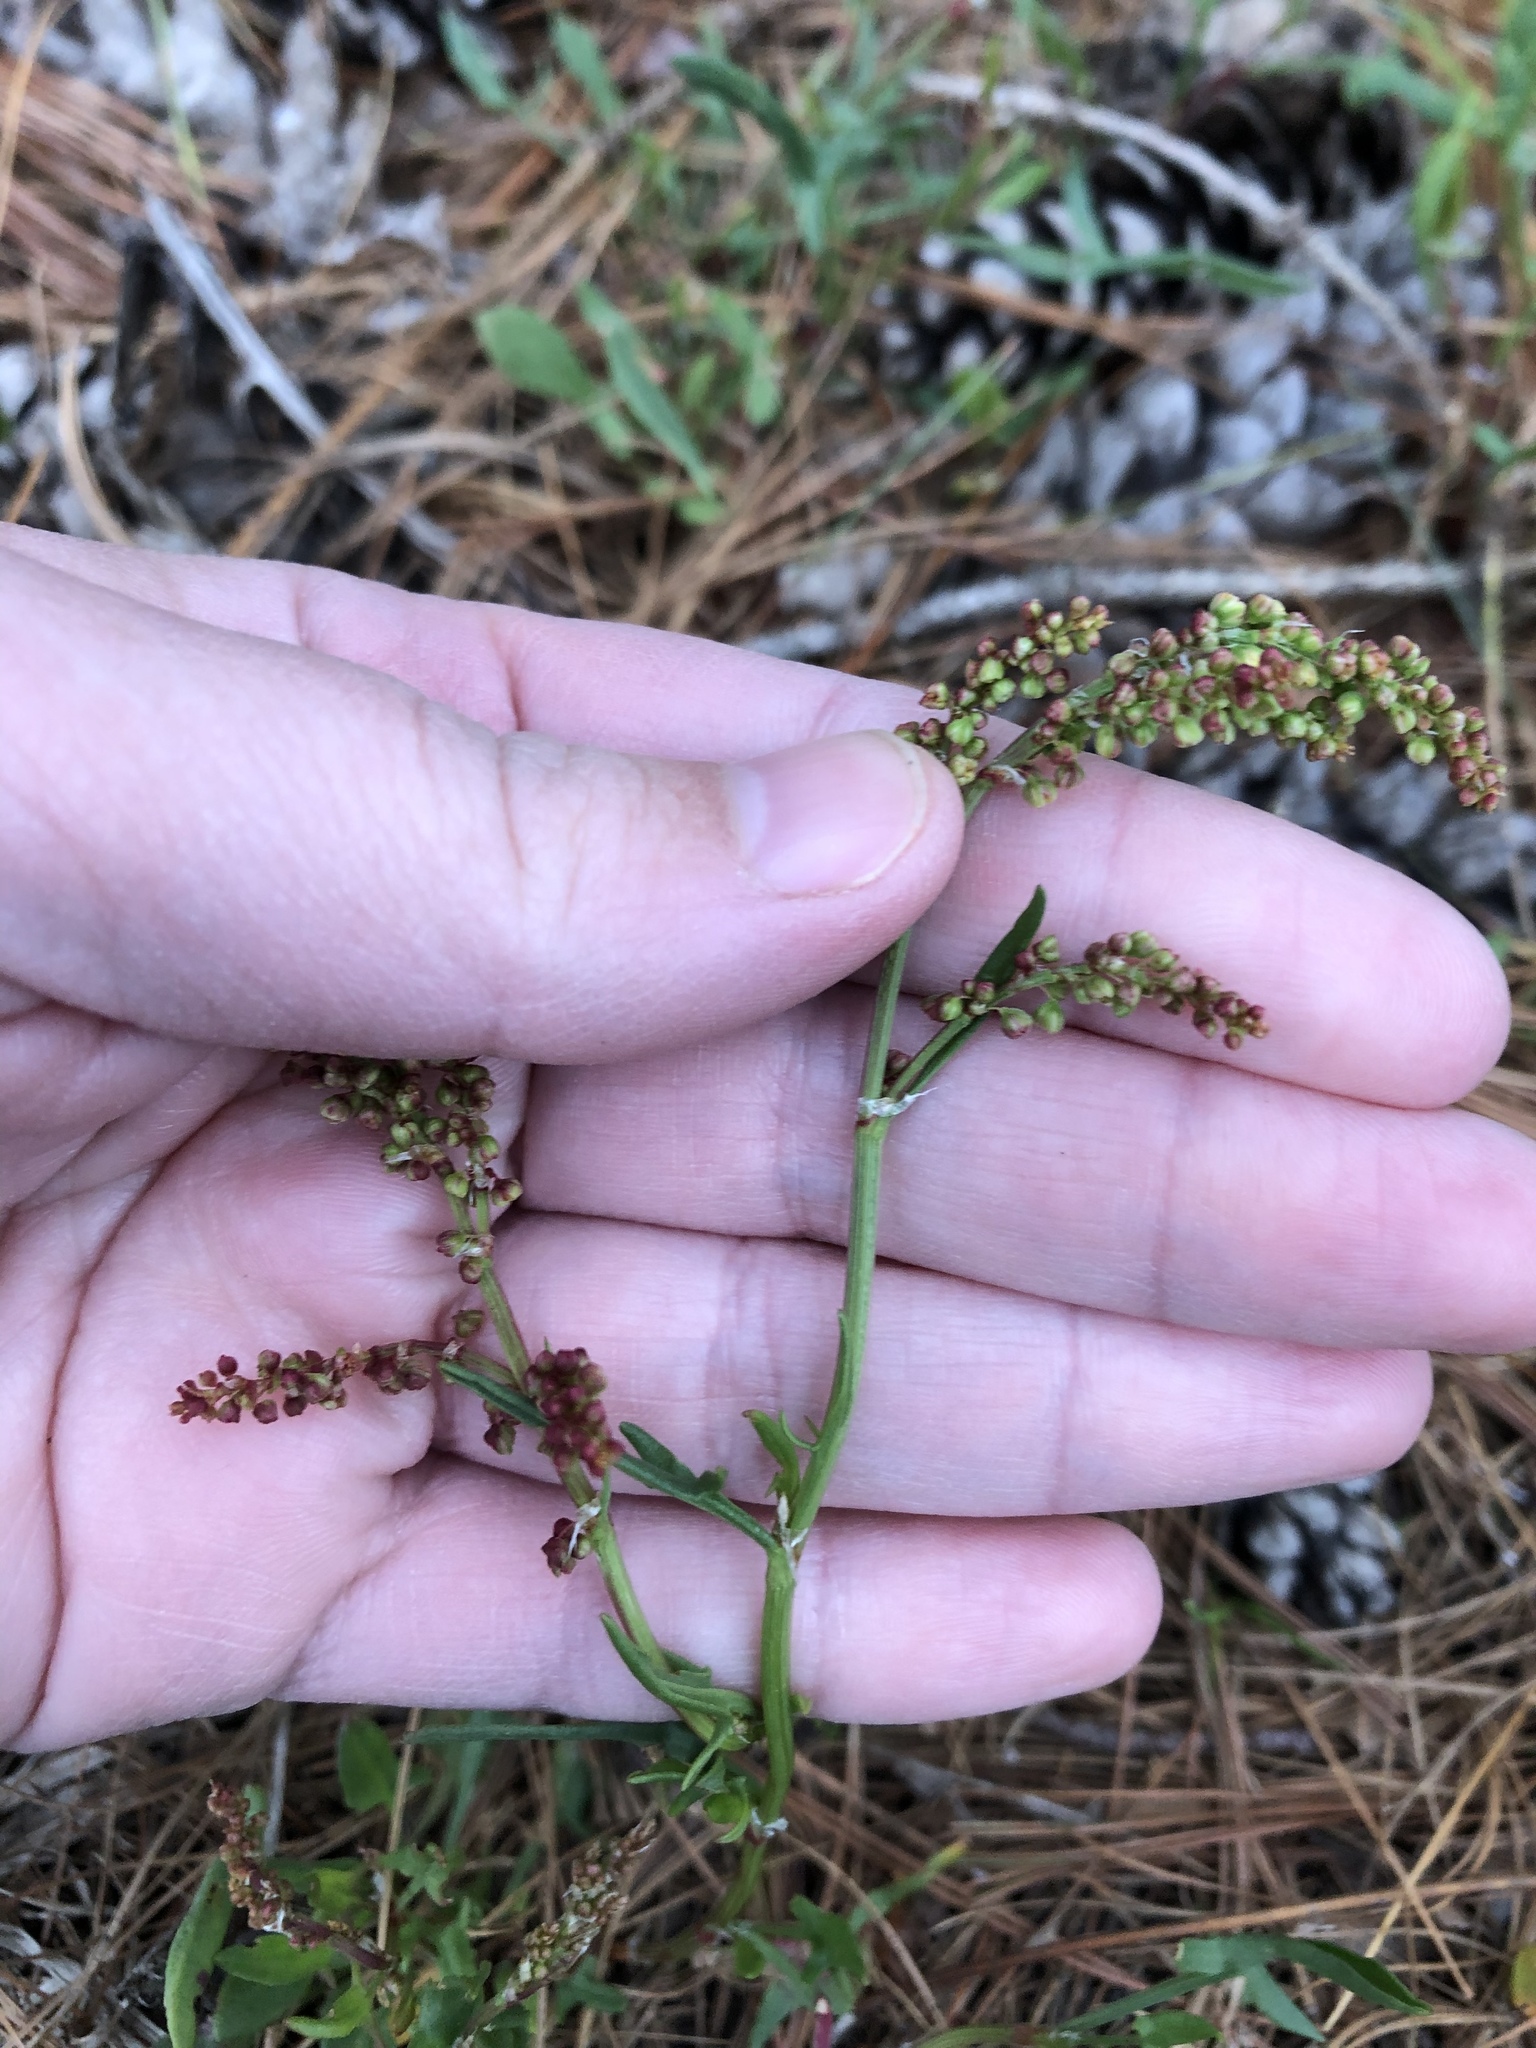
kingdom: Plantae
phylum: Tracheophyta
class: Magnoliopsida
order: Caryophyllales
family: Polygonaceae
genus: Rumex
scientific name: Rumex acetosella
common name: Common sheep sorrel
